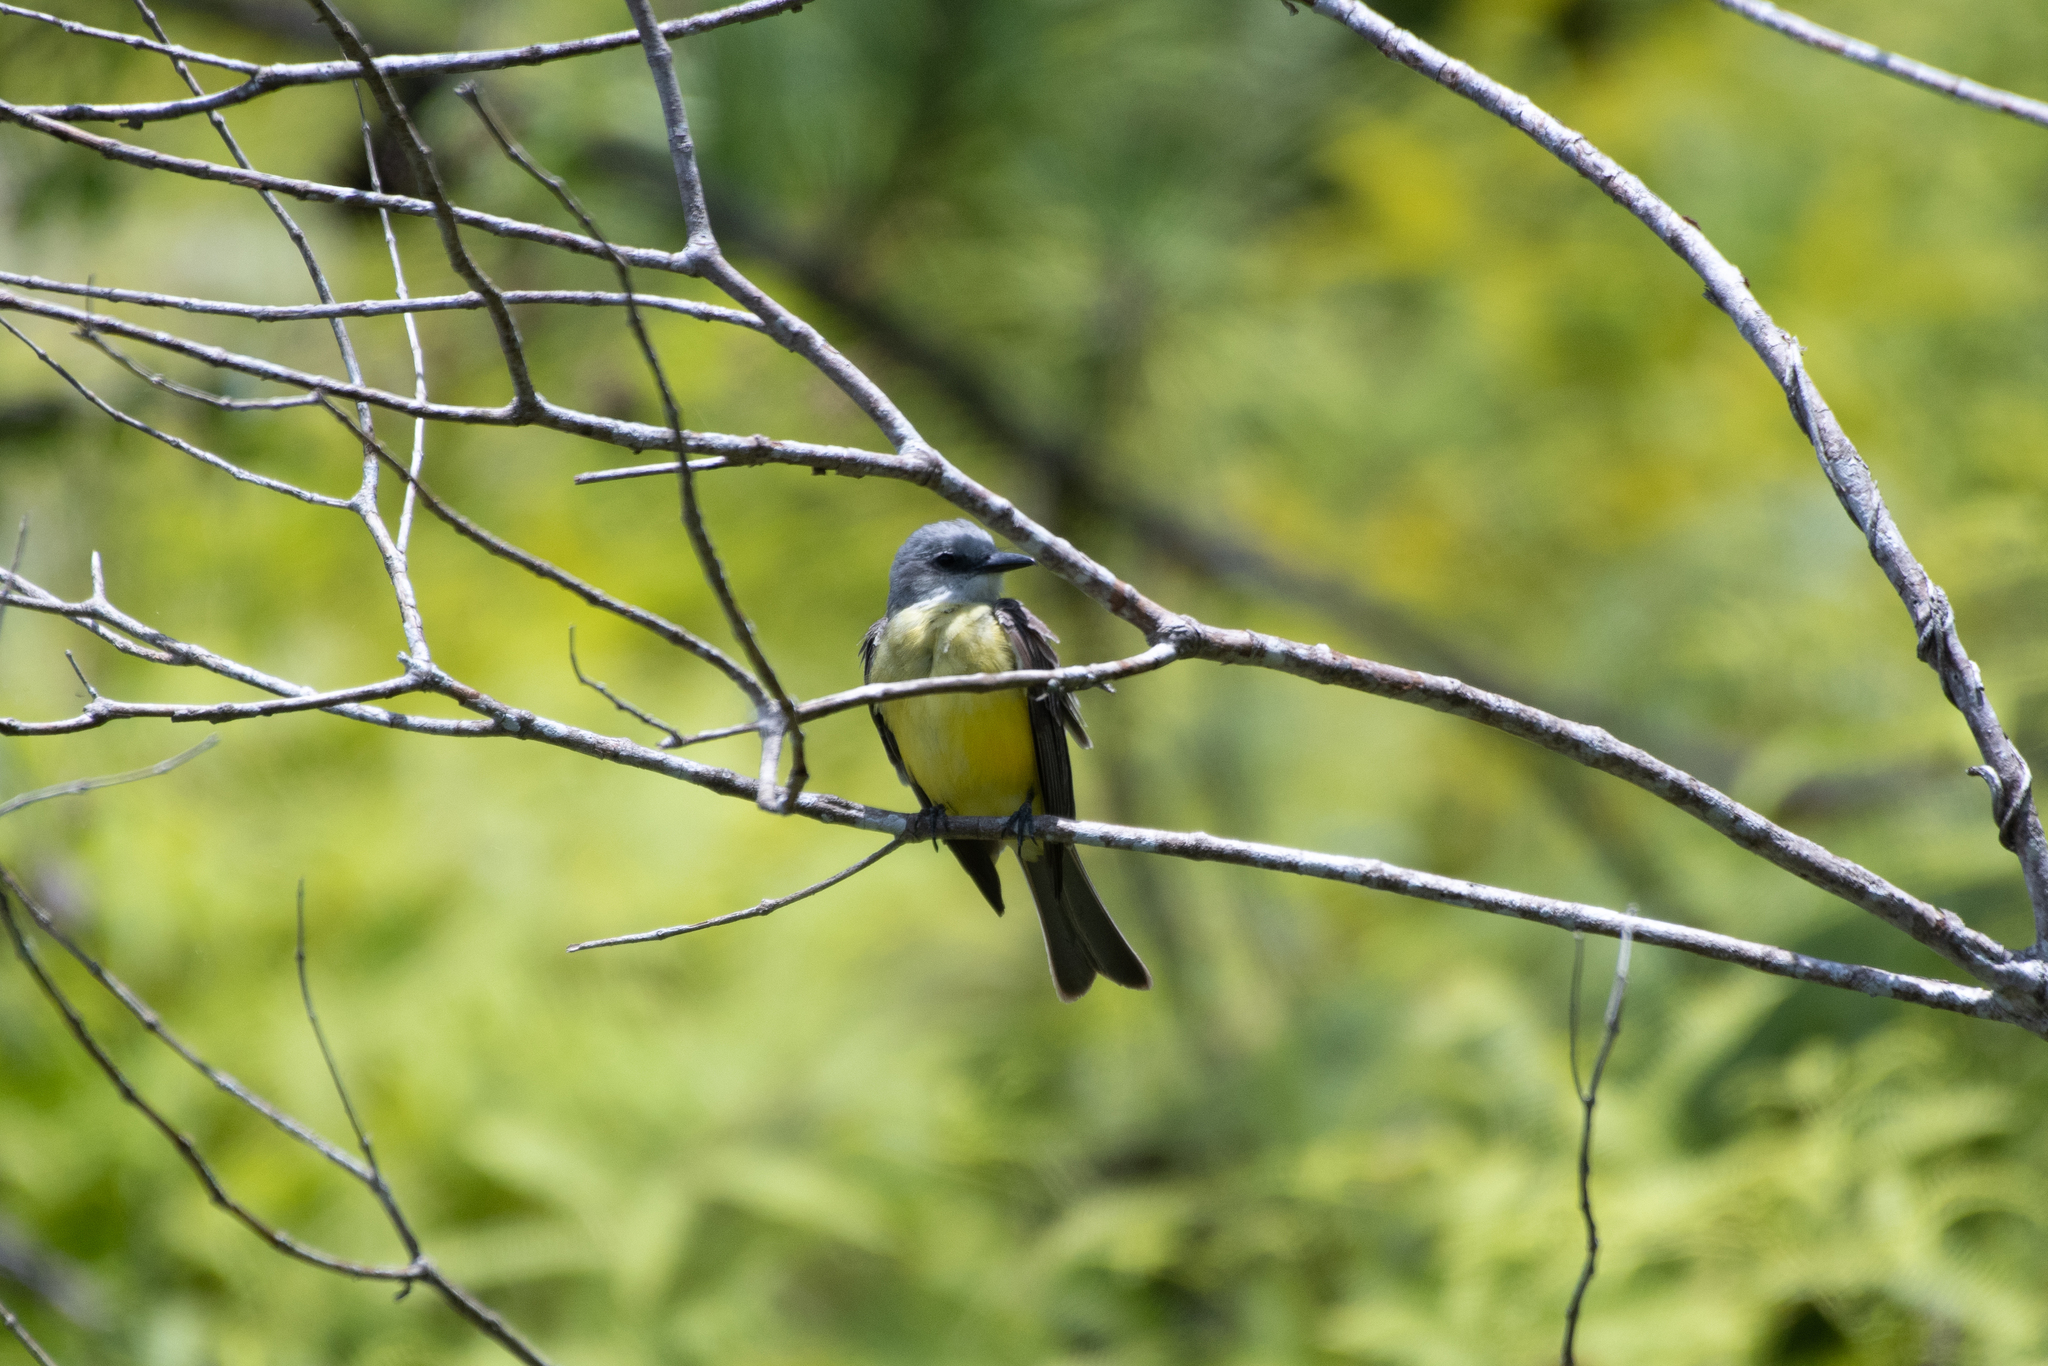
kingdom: Animalia
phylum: Chordata
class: Aves
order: Passeriformes
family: Tyrannidae
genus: Tyrannus
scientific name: Tyrannus melancholicus
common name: Tropical kingbird
